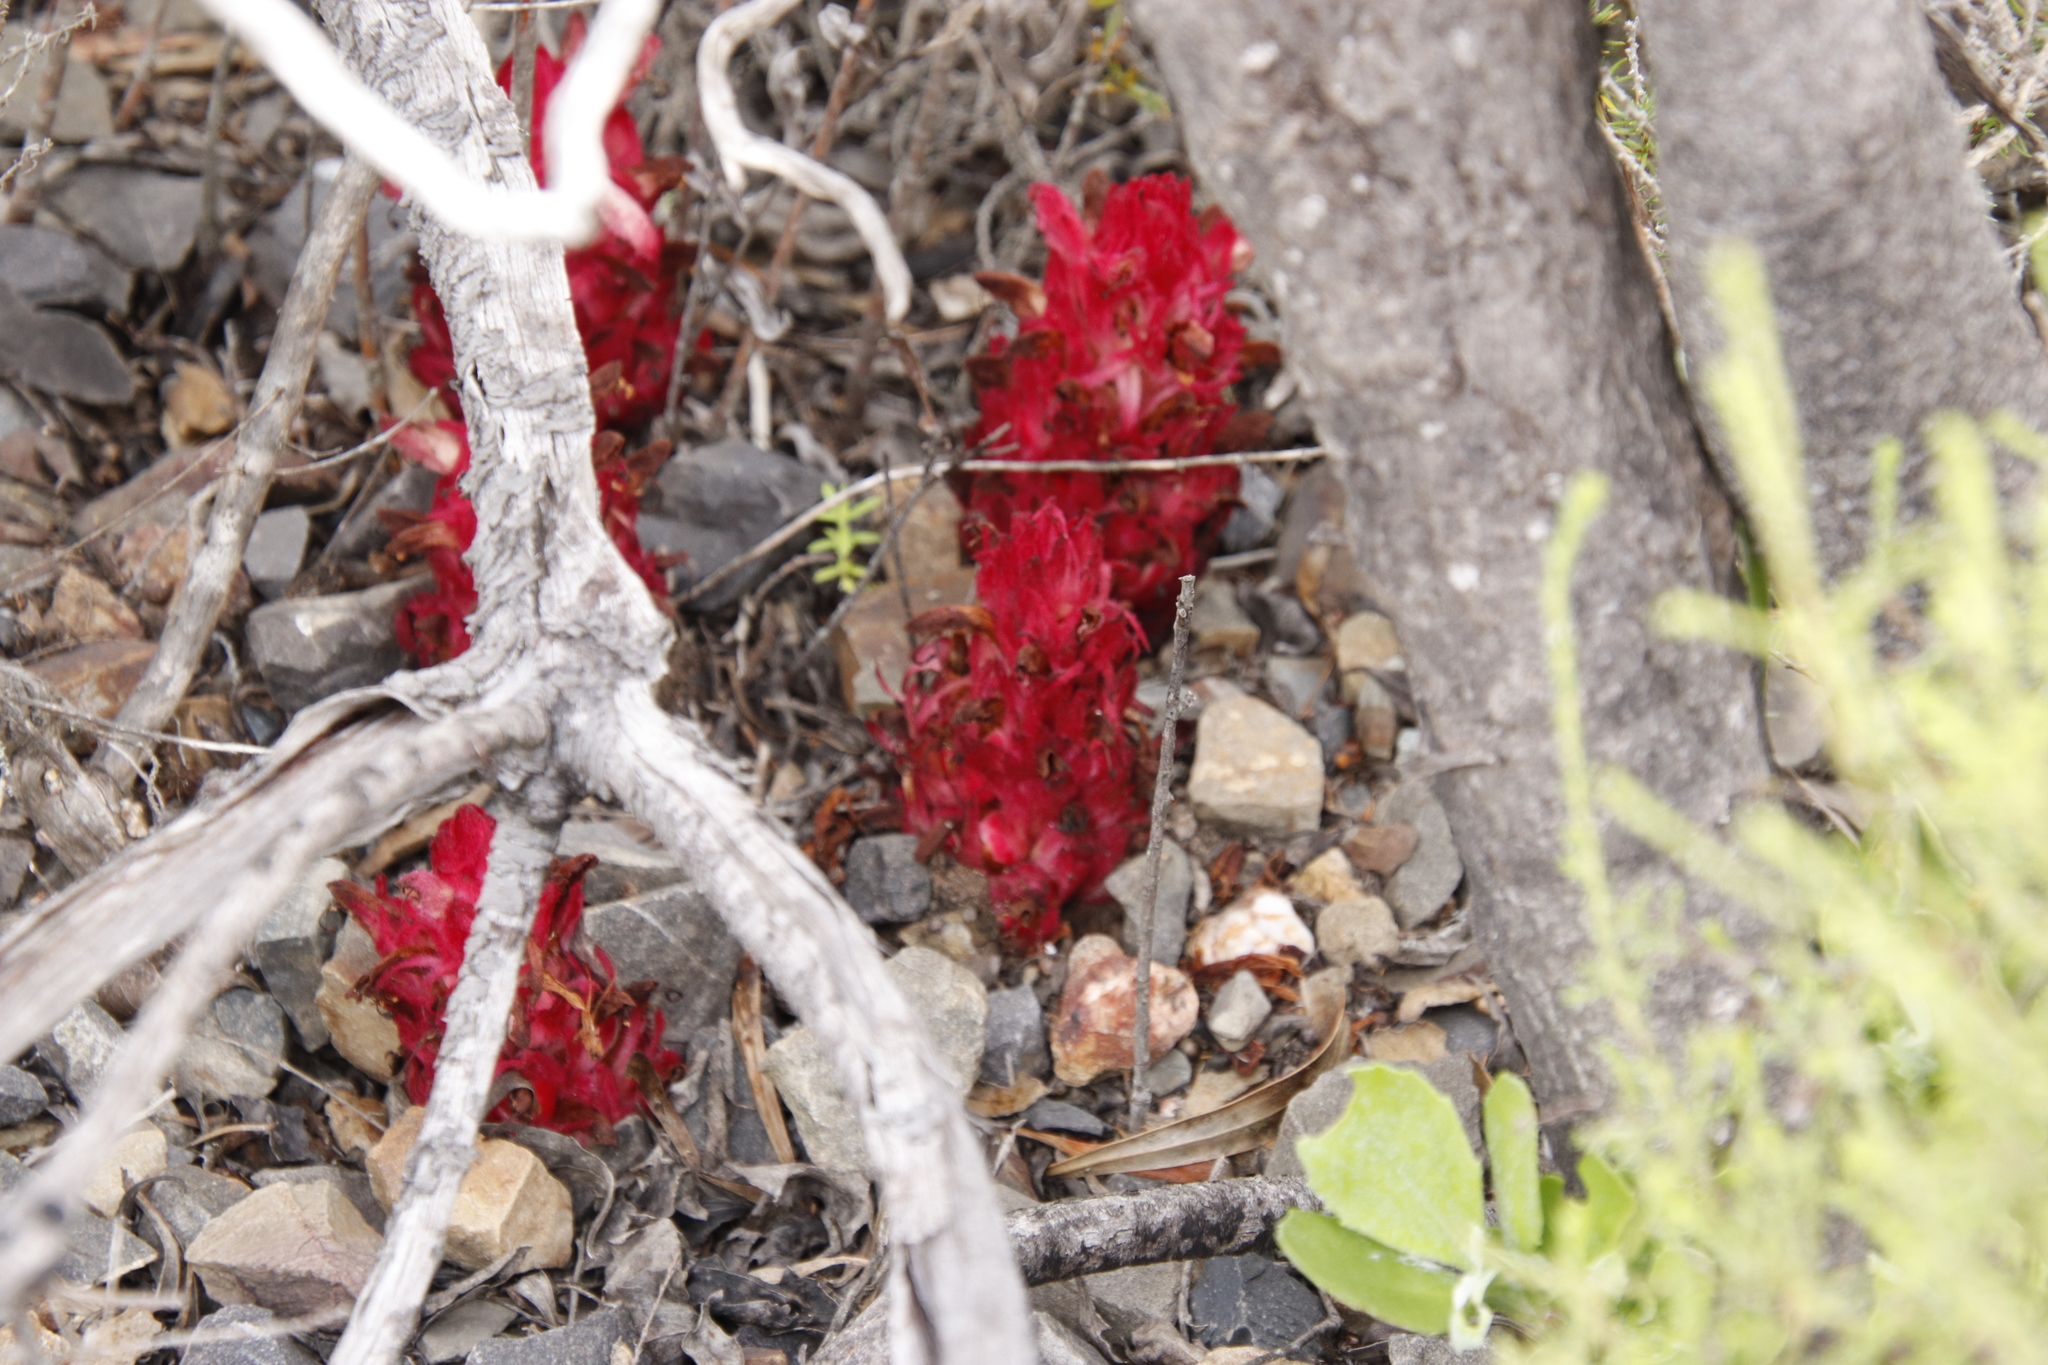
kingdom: Plantae
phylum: Tracheophyta
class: Magnoliopsida
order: Lamiales
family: Orobanchaceae
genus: Hyobanche
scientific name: Hyobanche sanguinea
